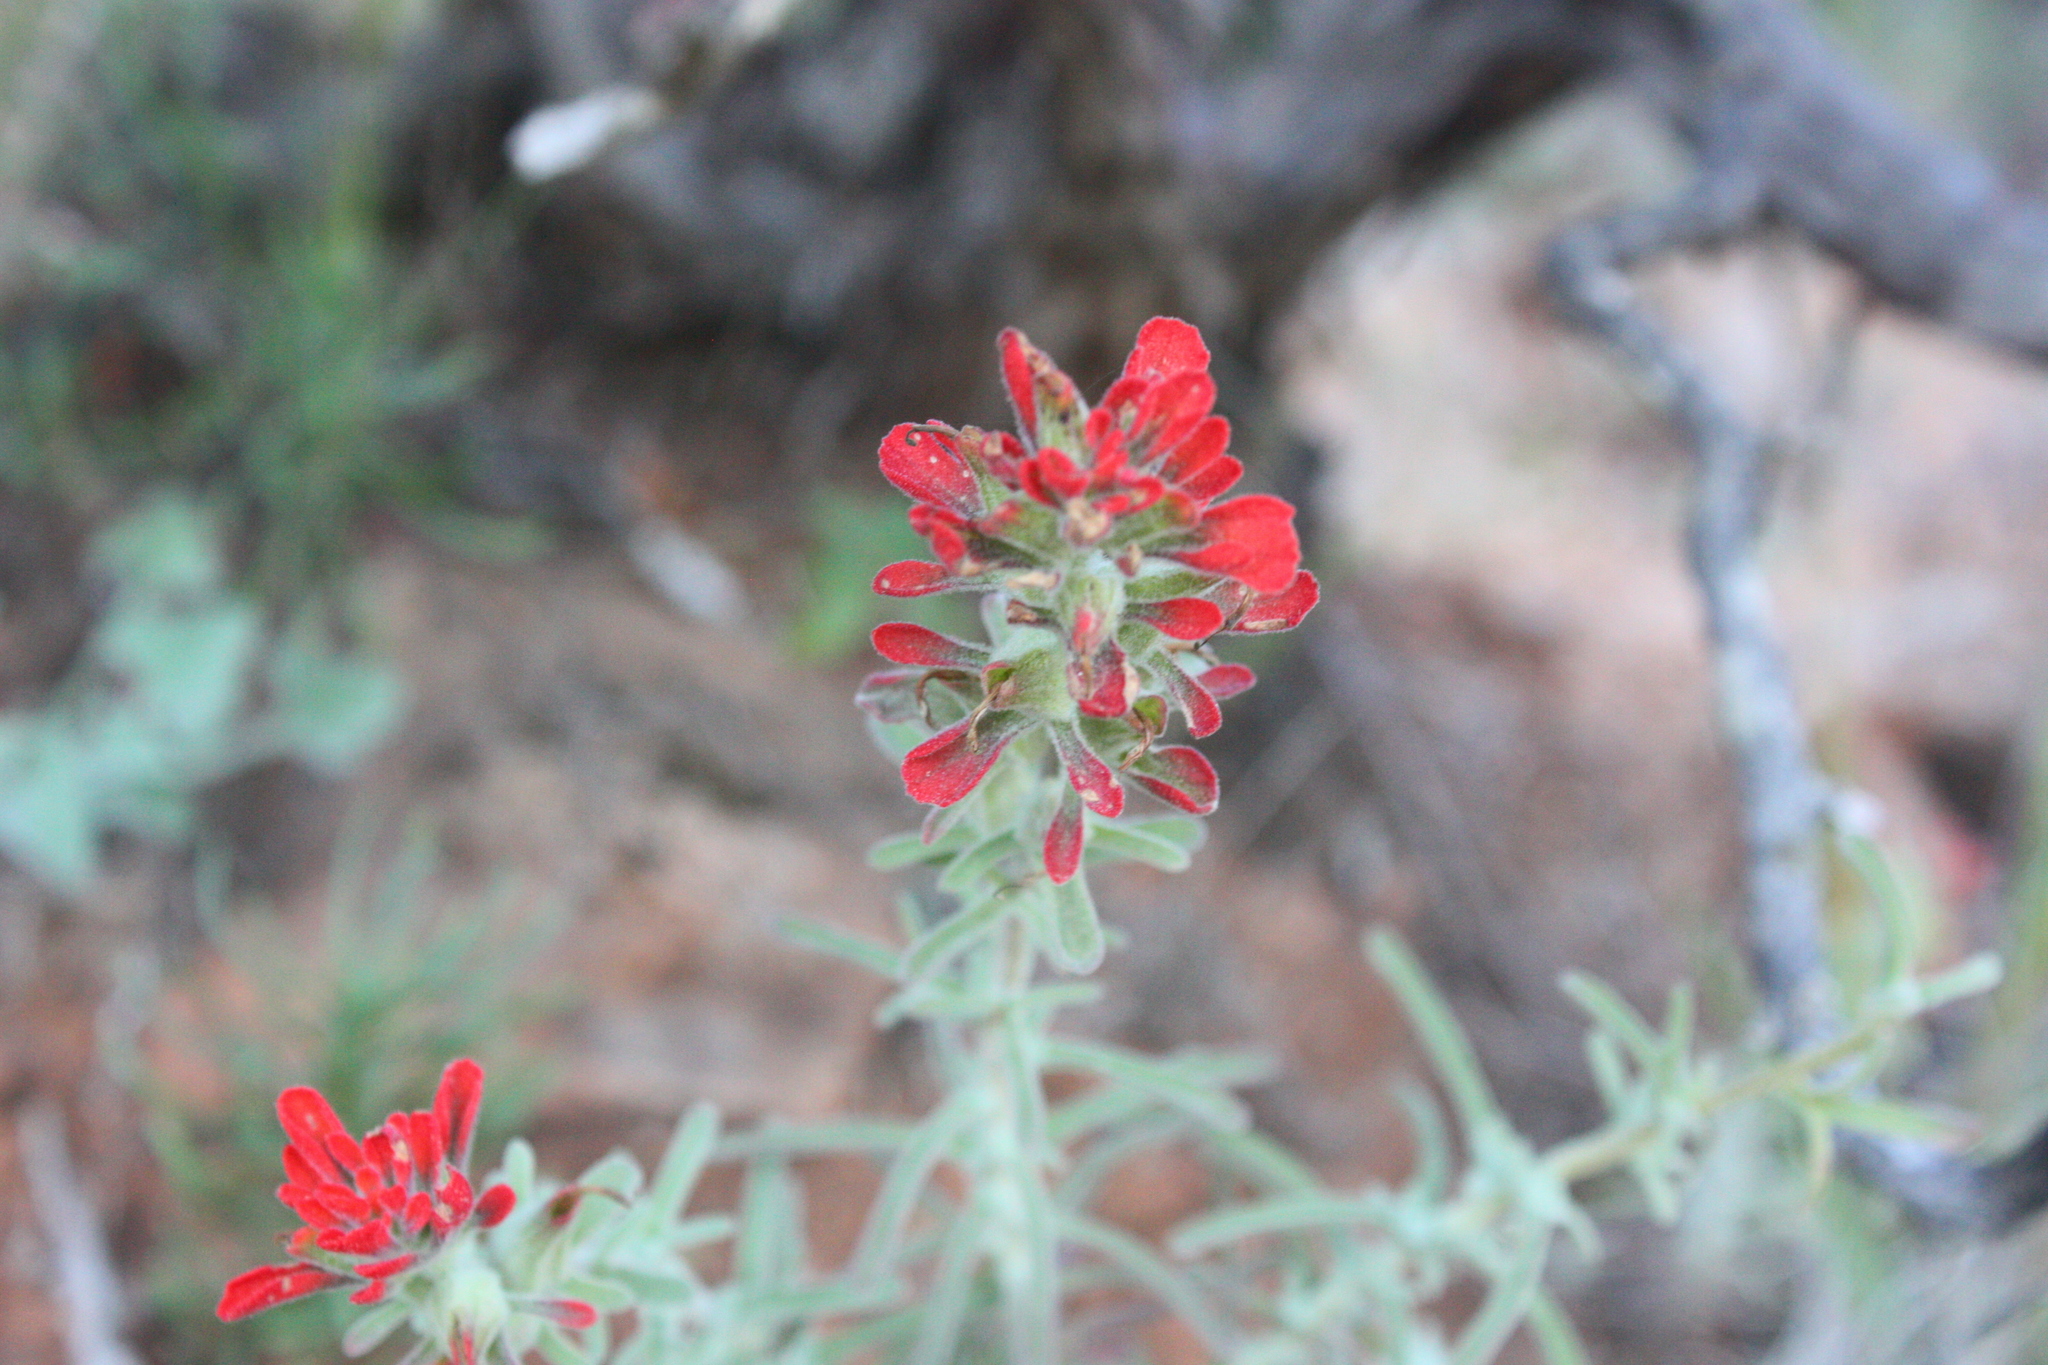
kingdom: Plantae
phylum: Tracheophyta
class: Magnoliopsida
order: Lamiales
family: Orobanchaceae
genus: Castilleja
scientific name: Castilleja foliolosa
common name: Woolly indian paintbrush
